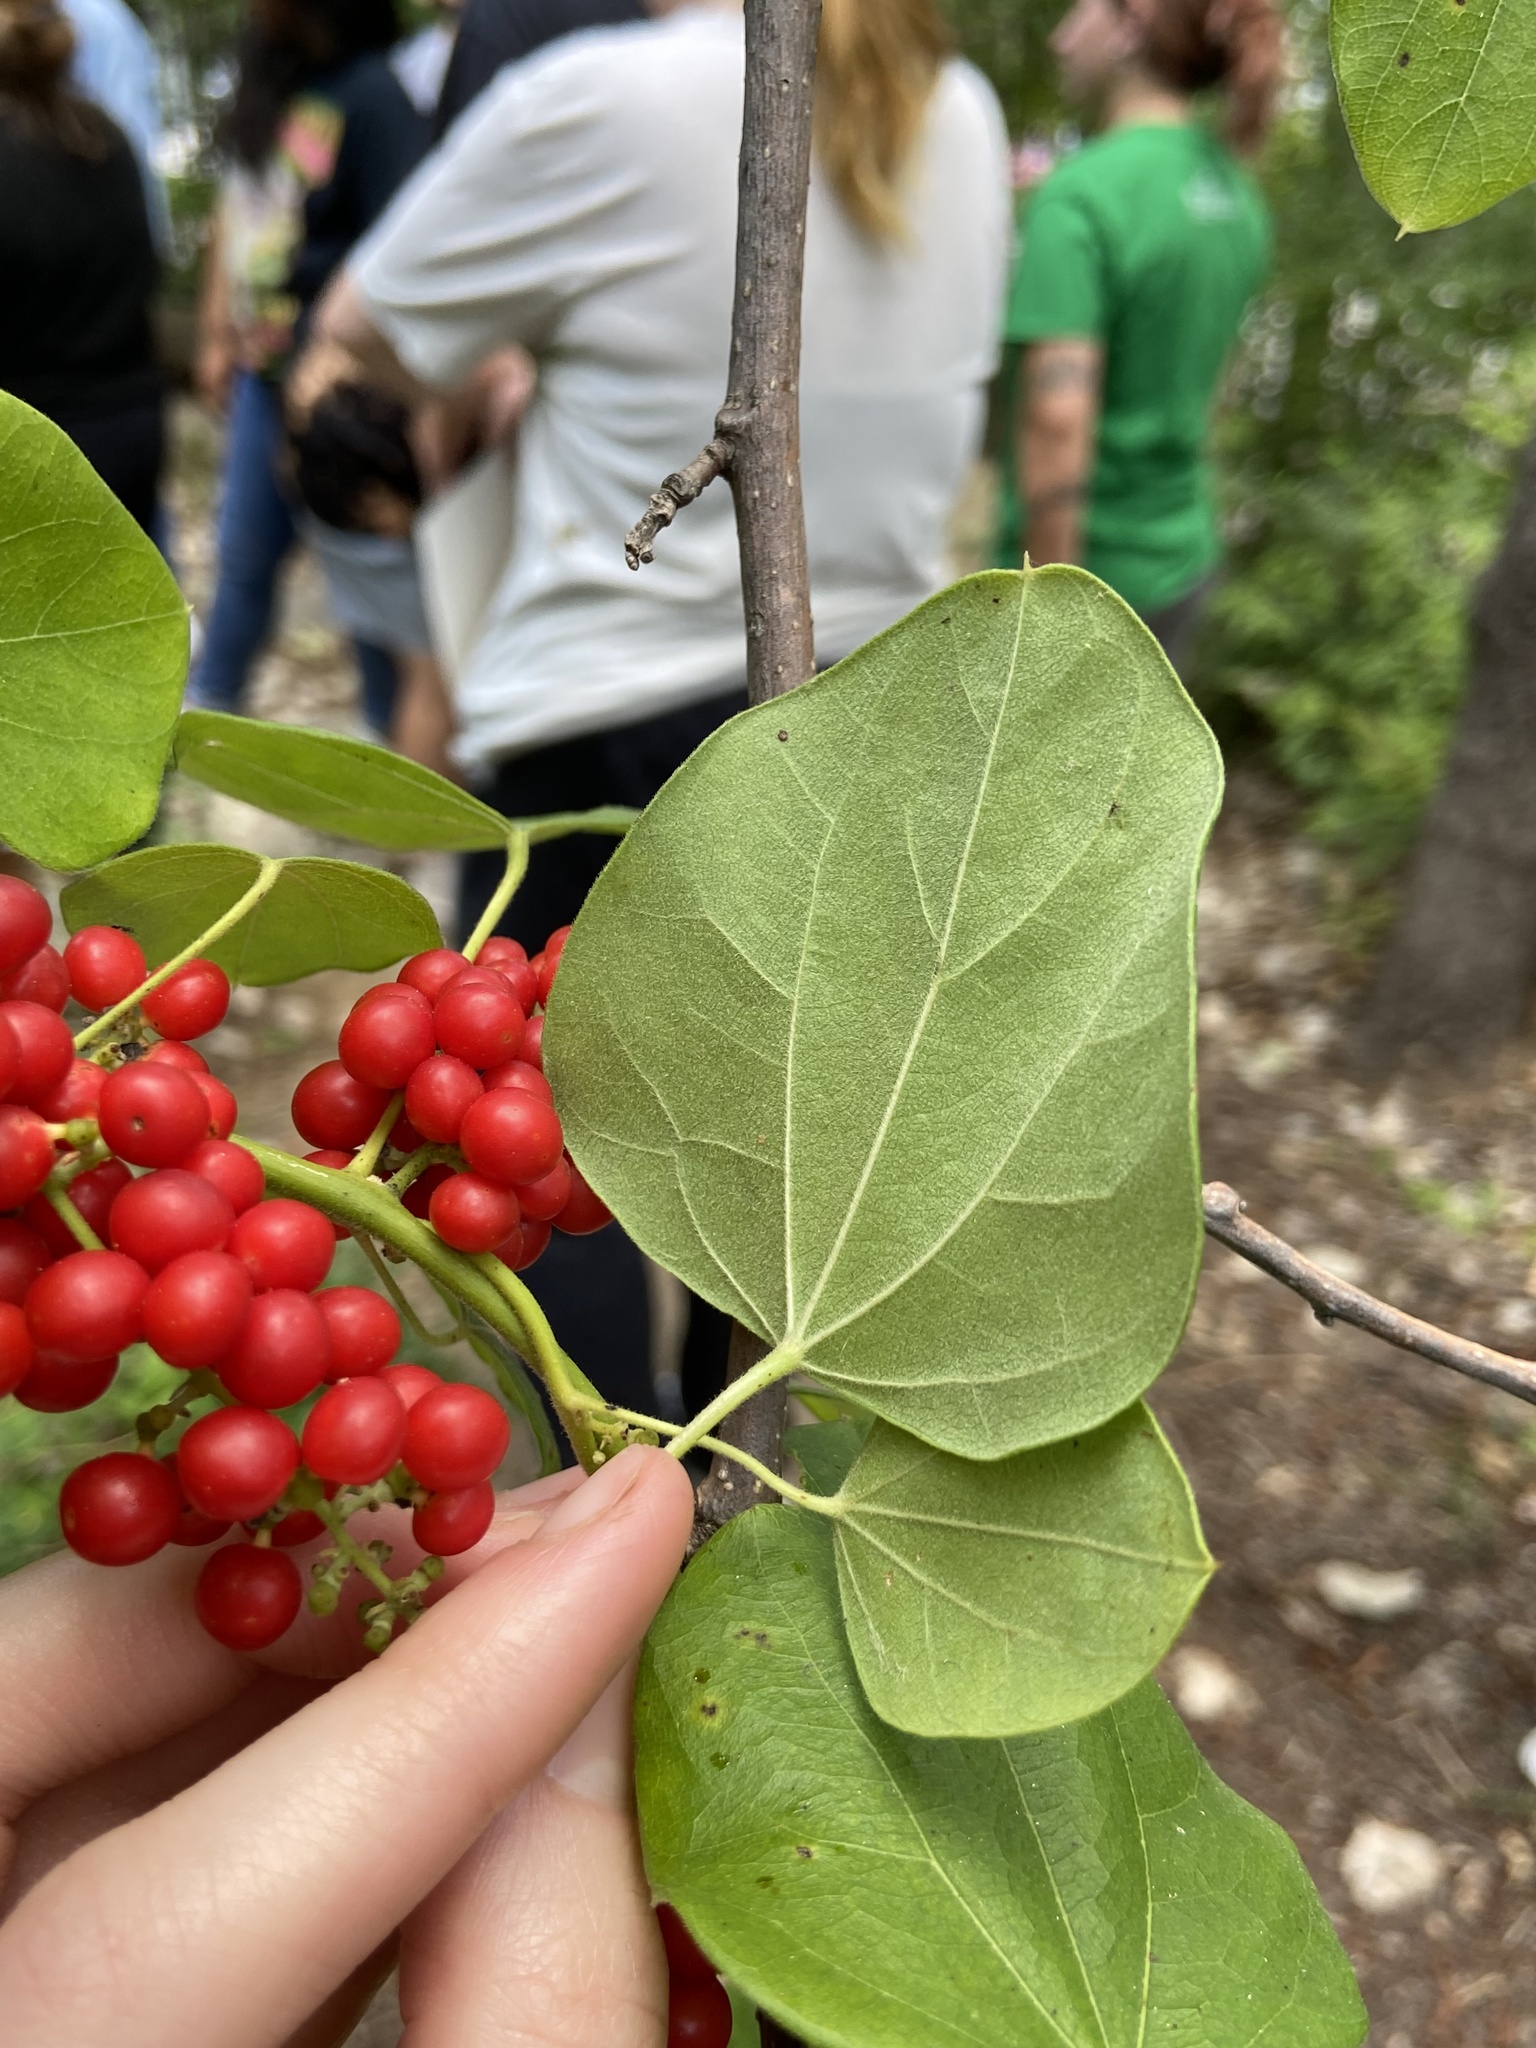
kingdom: Plantae
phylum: Tracheophyta
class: Magnoliopsida
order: Ranunculales
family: Menispermaceae
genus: Cocculus
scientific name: Cocculus carolinus
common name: Carolina moonseed
